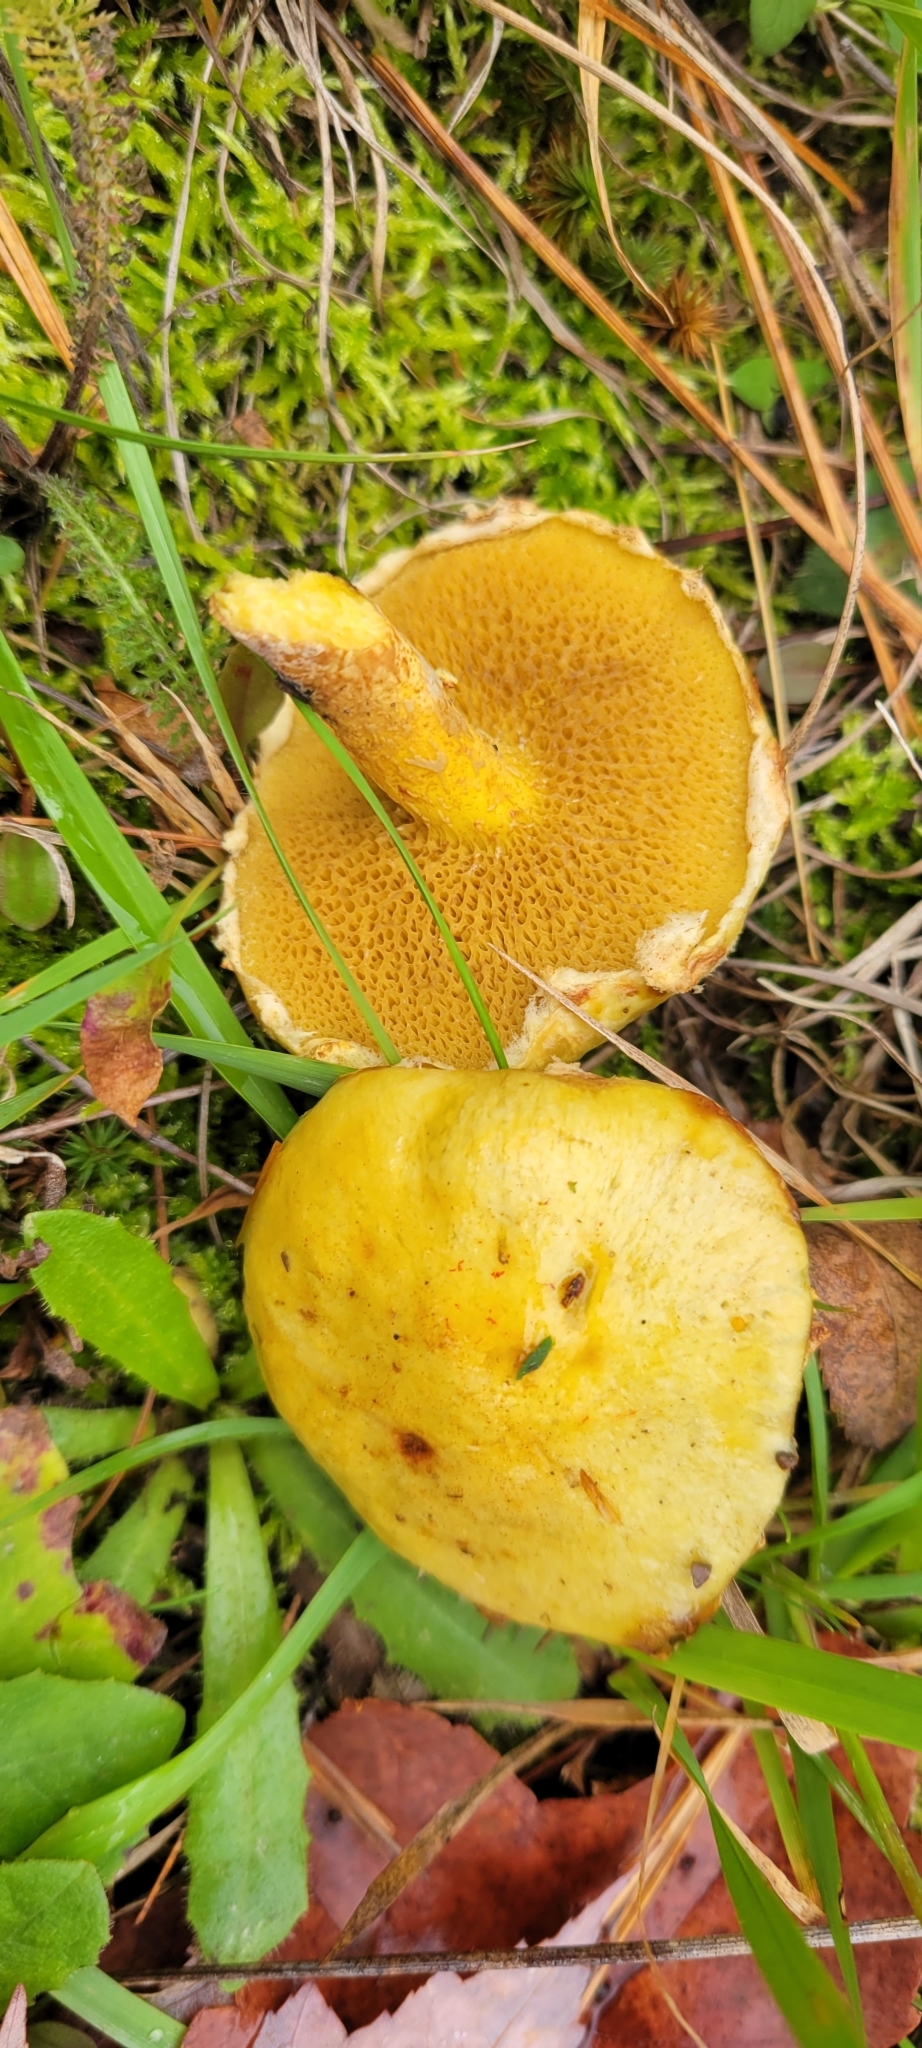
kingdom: Fungi
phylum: Basidiomycota
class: Agaricomycetes
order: Boletales
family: Suillaceae
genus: Suillus
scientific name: Suillus americanus
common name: Chicken fat mushroom
